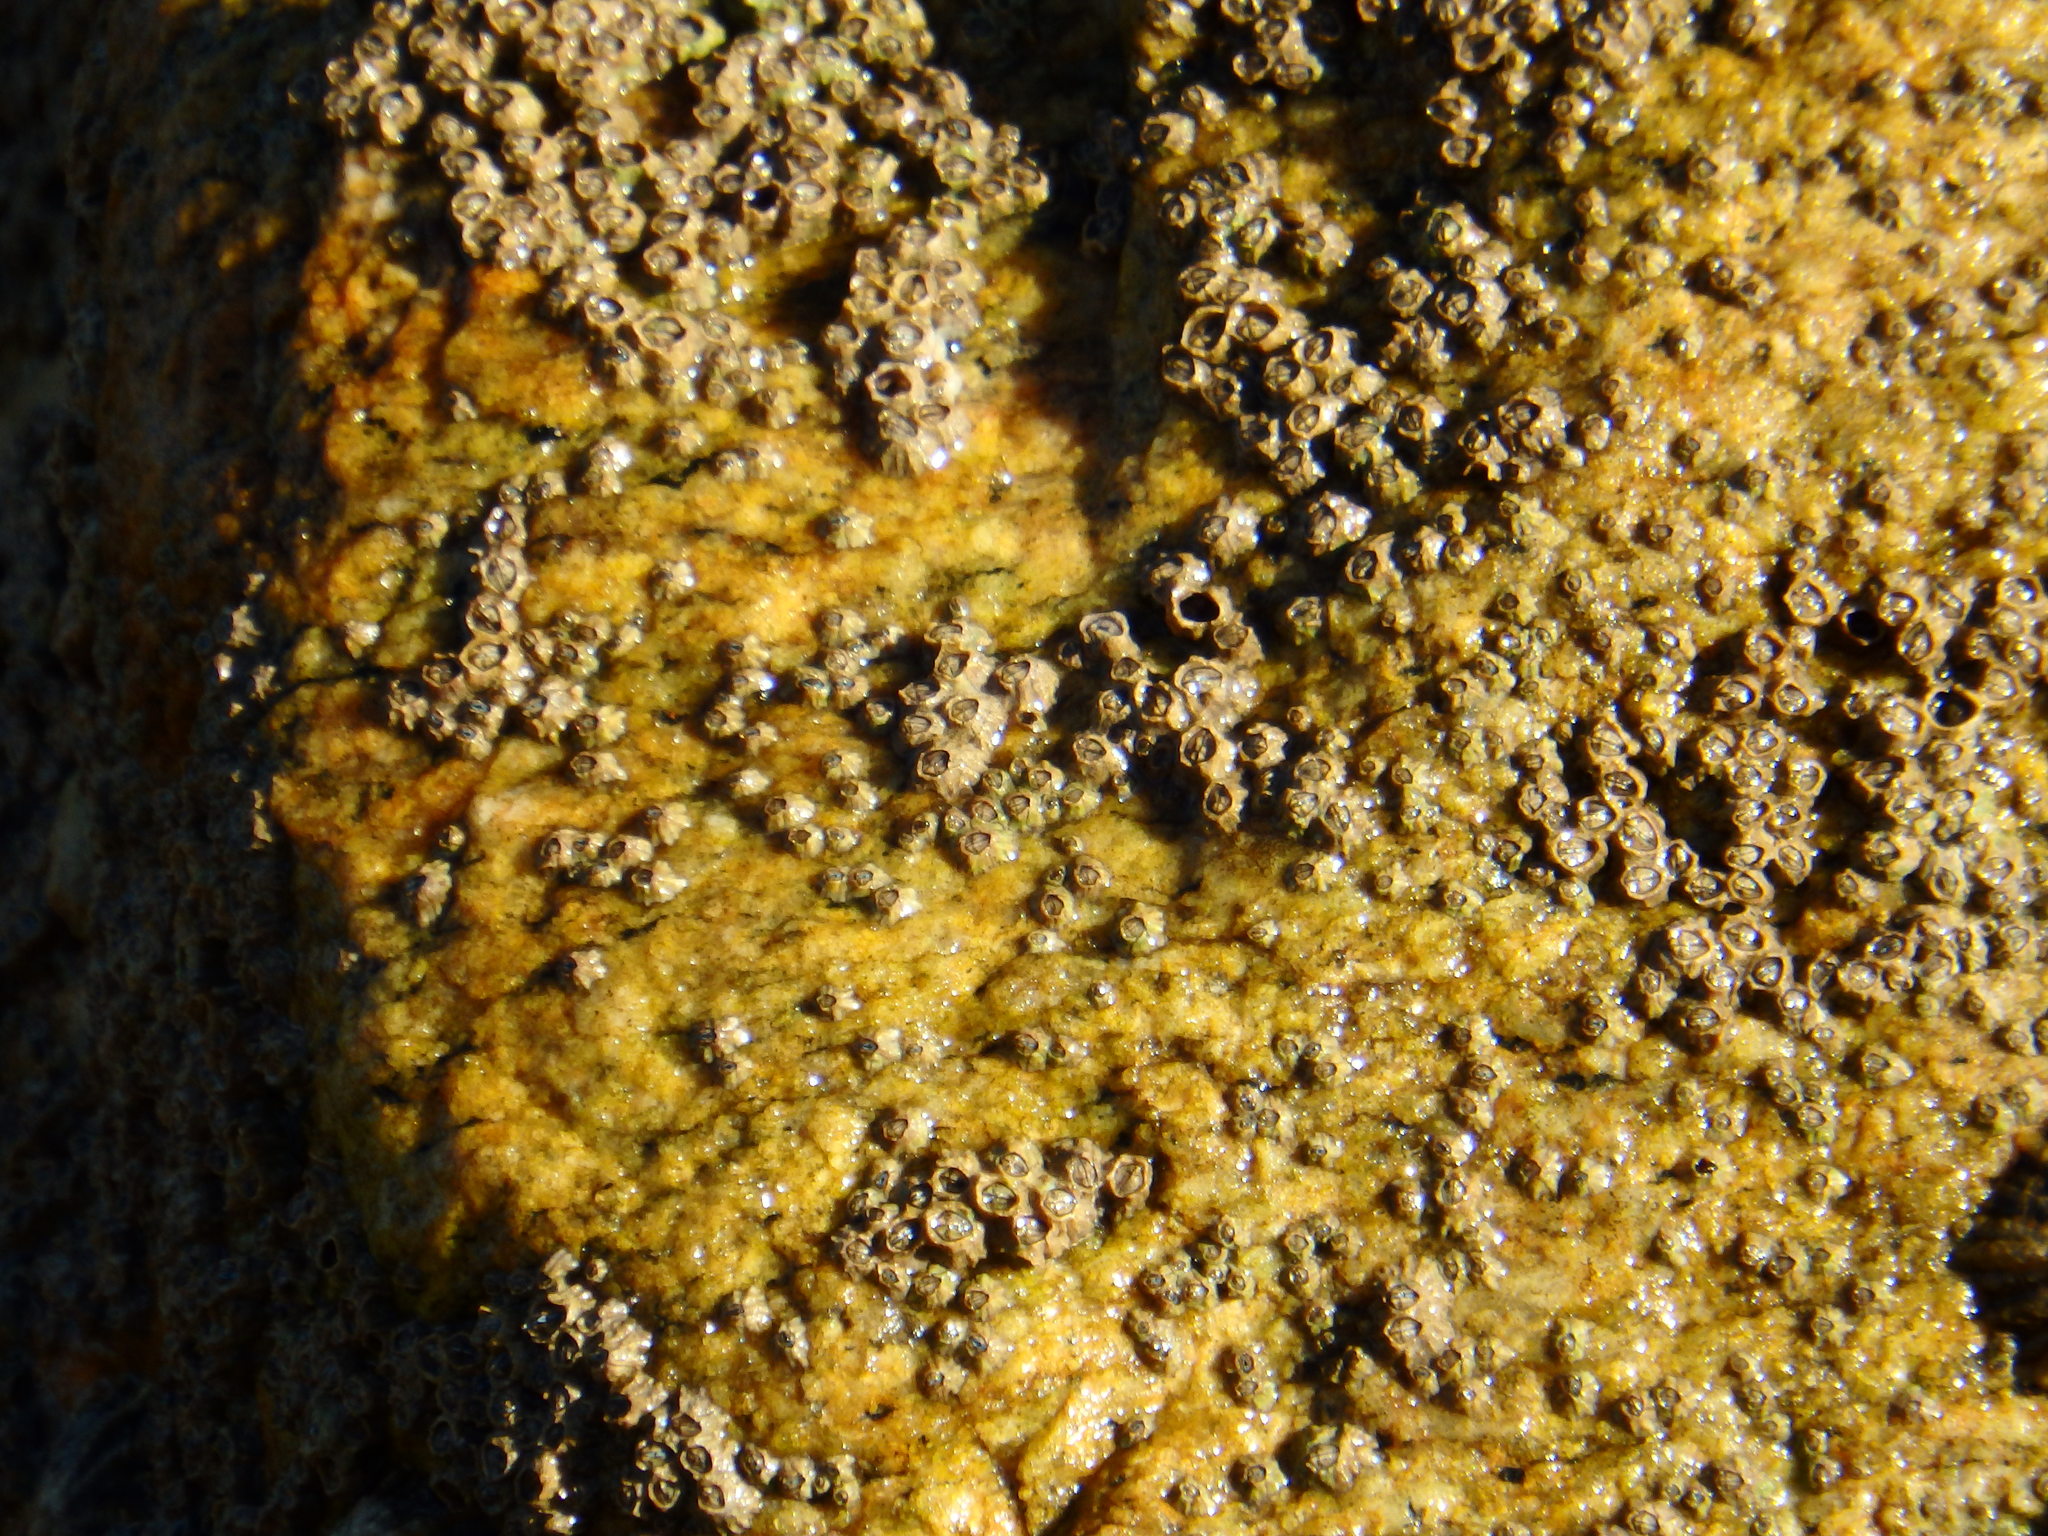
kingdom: Animalia
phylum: Arthropoda
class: Maxillopoda
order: Sessilia
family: Chthamalidae
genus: Chthamalus
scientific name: Chthamalus montagui
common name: Montagu's stellate barnacle
